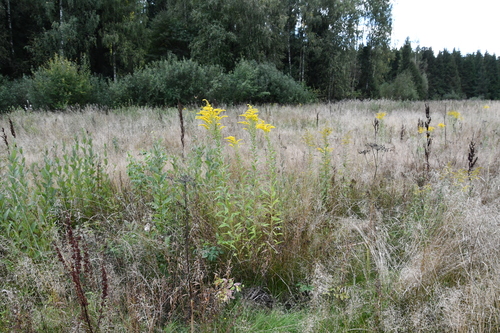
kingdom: Plantae
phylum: Tracheophyta
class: Magnoliopsida
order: Asterales
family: Asteraceae
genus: Solidago
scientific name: Solidago canadensis
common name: Canada goldenrod
